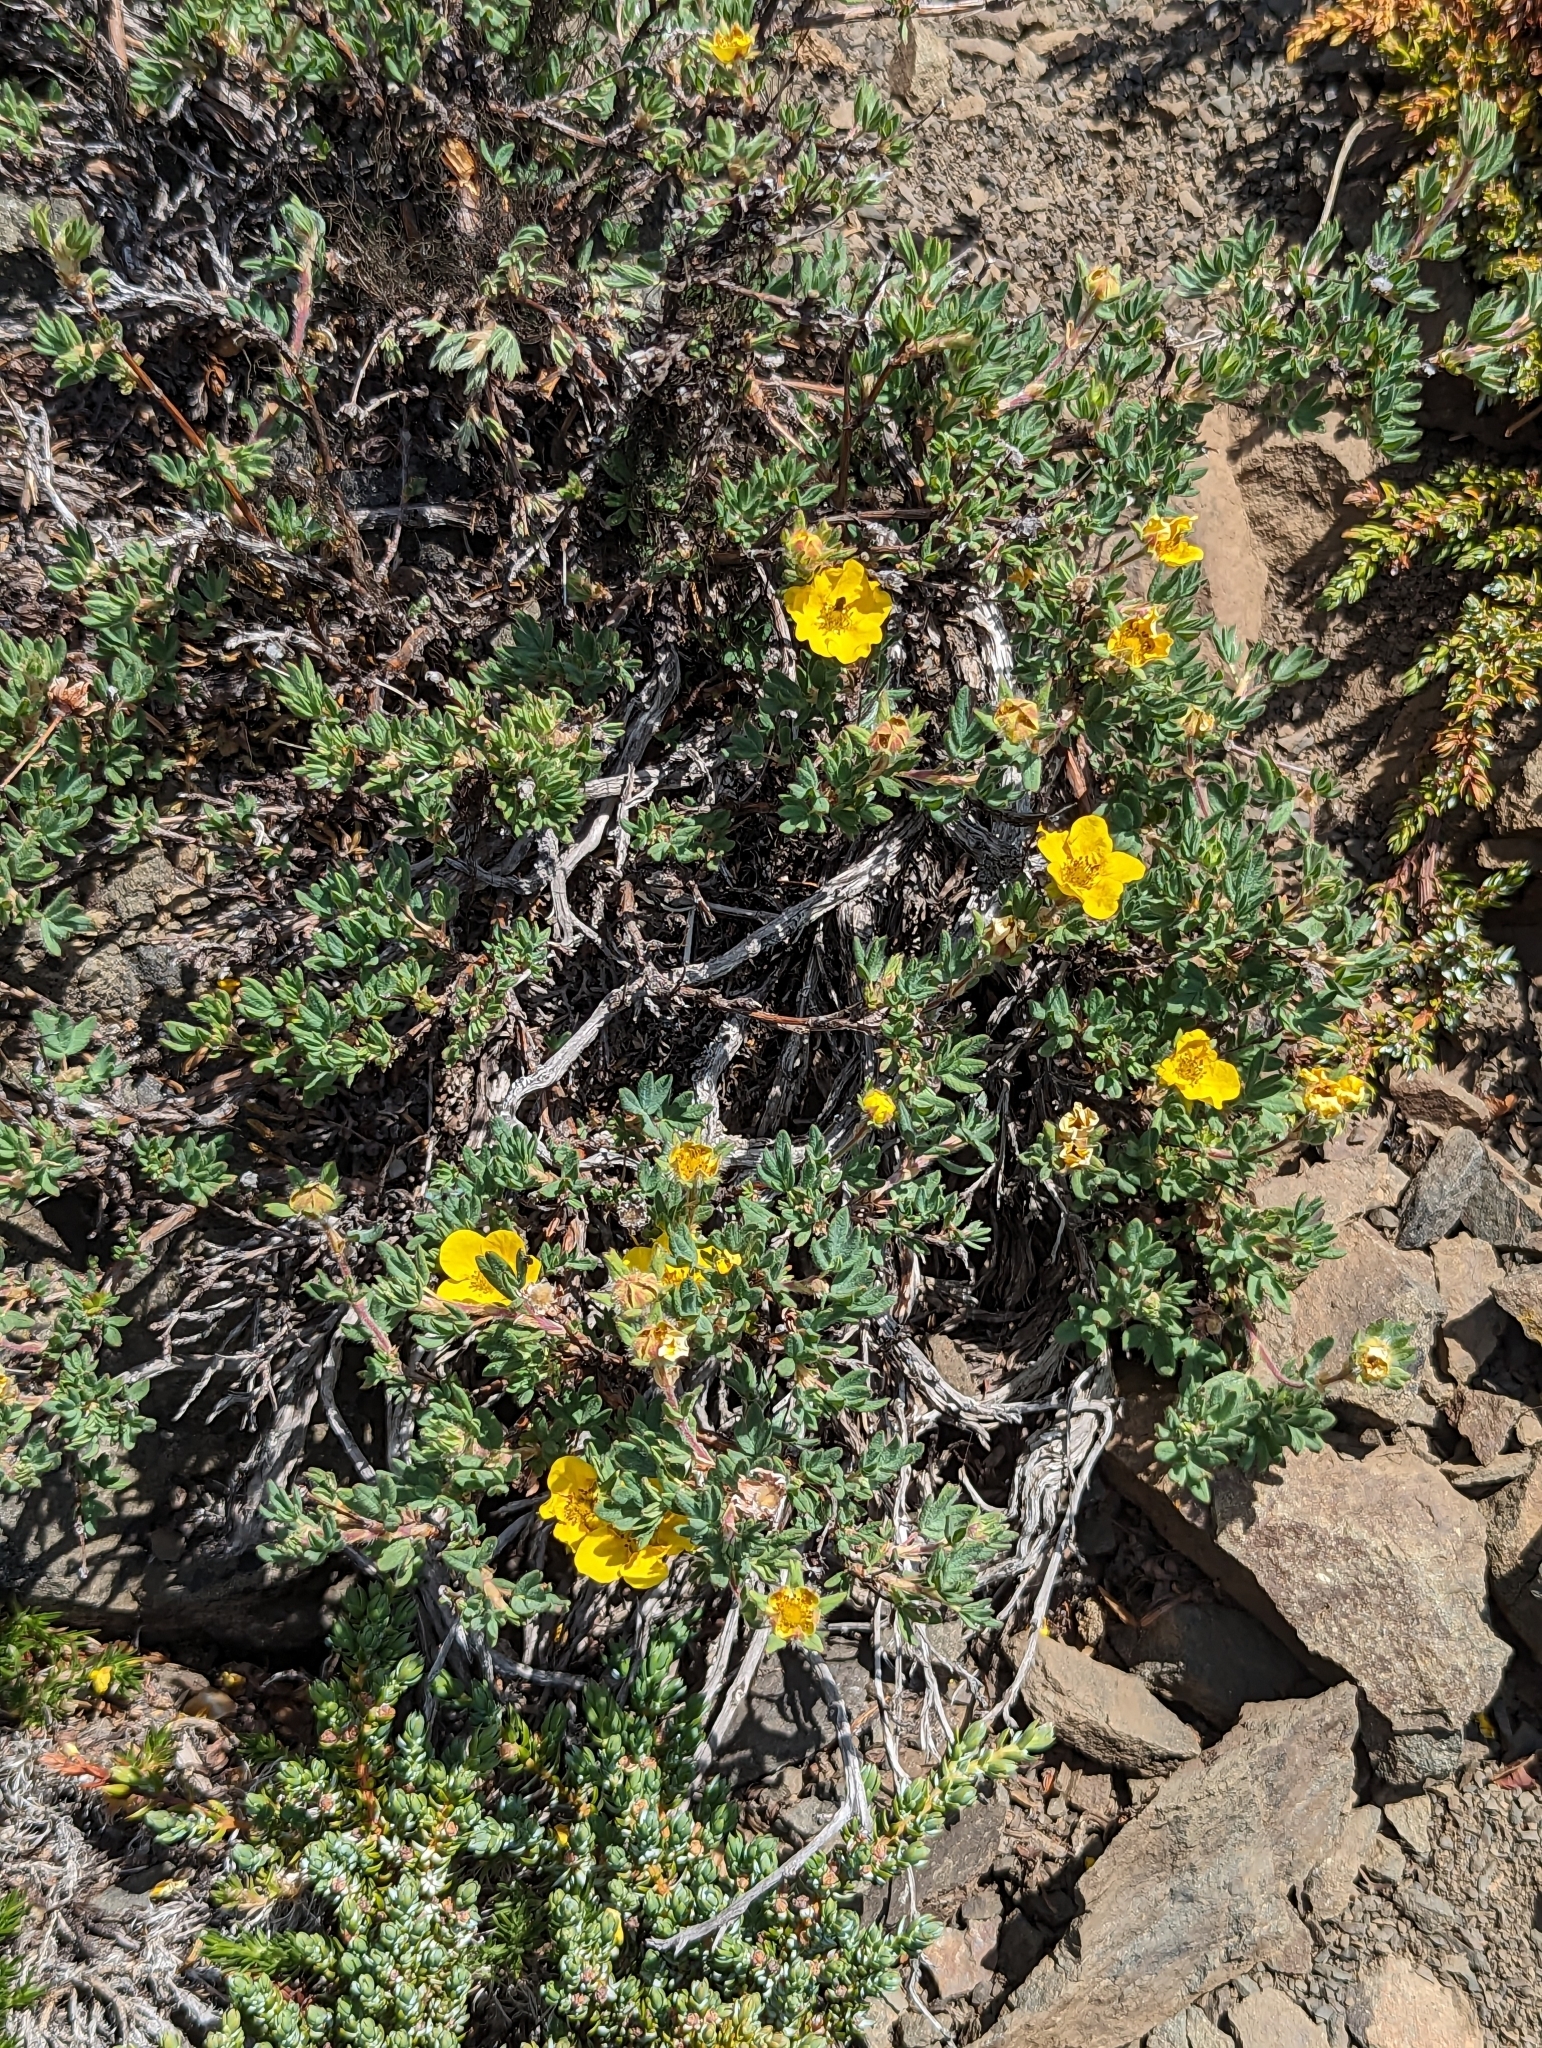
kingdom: Plantae
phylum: Tracheophyta
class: Magnoliopsida
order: Rosales
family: Rosaceae
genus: Dasiphora
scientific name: Dasiphora fruticosa
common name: Shrubby cinquefoil
